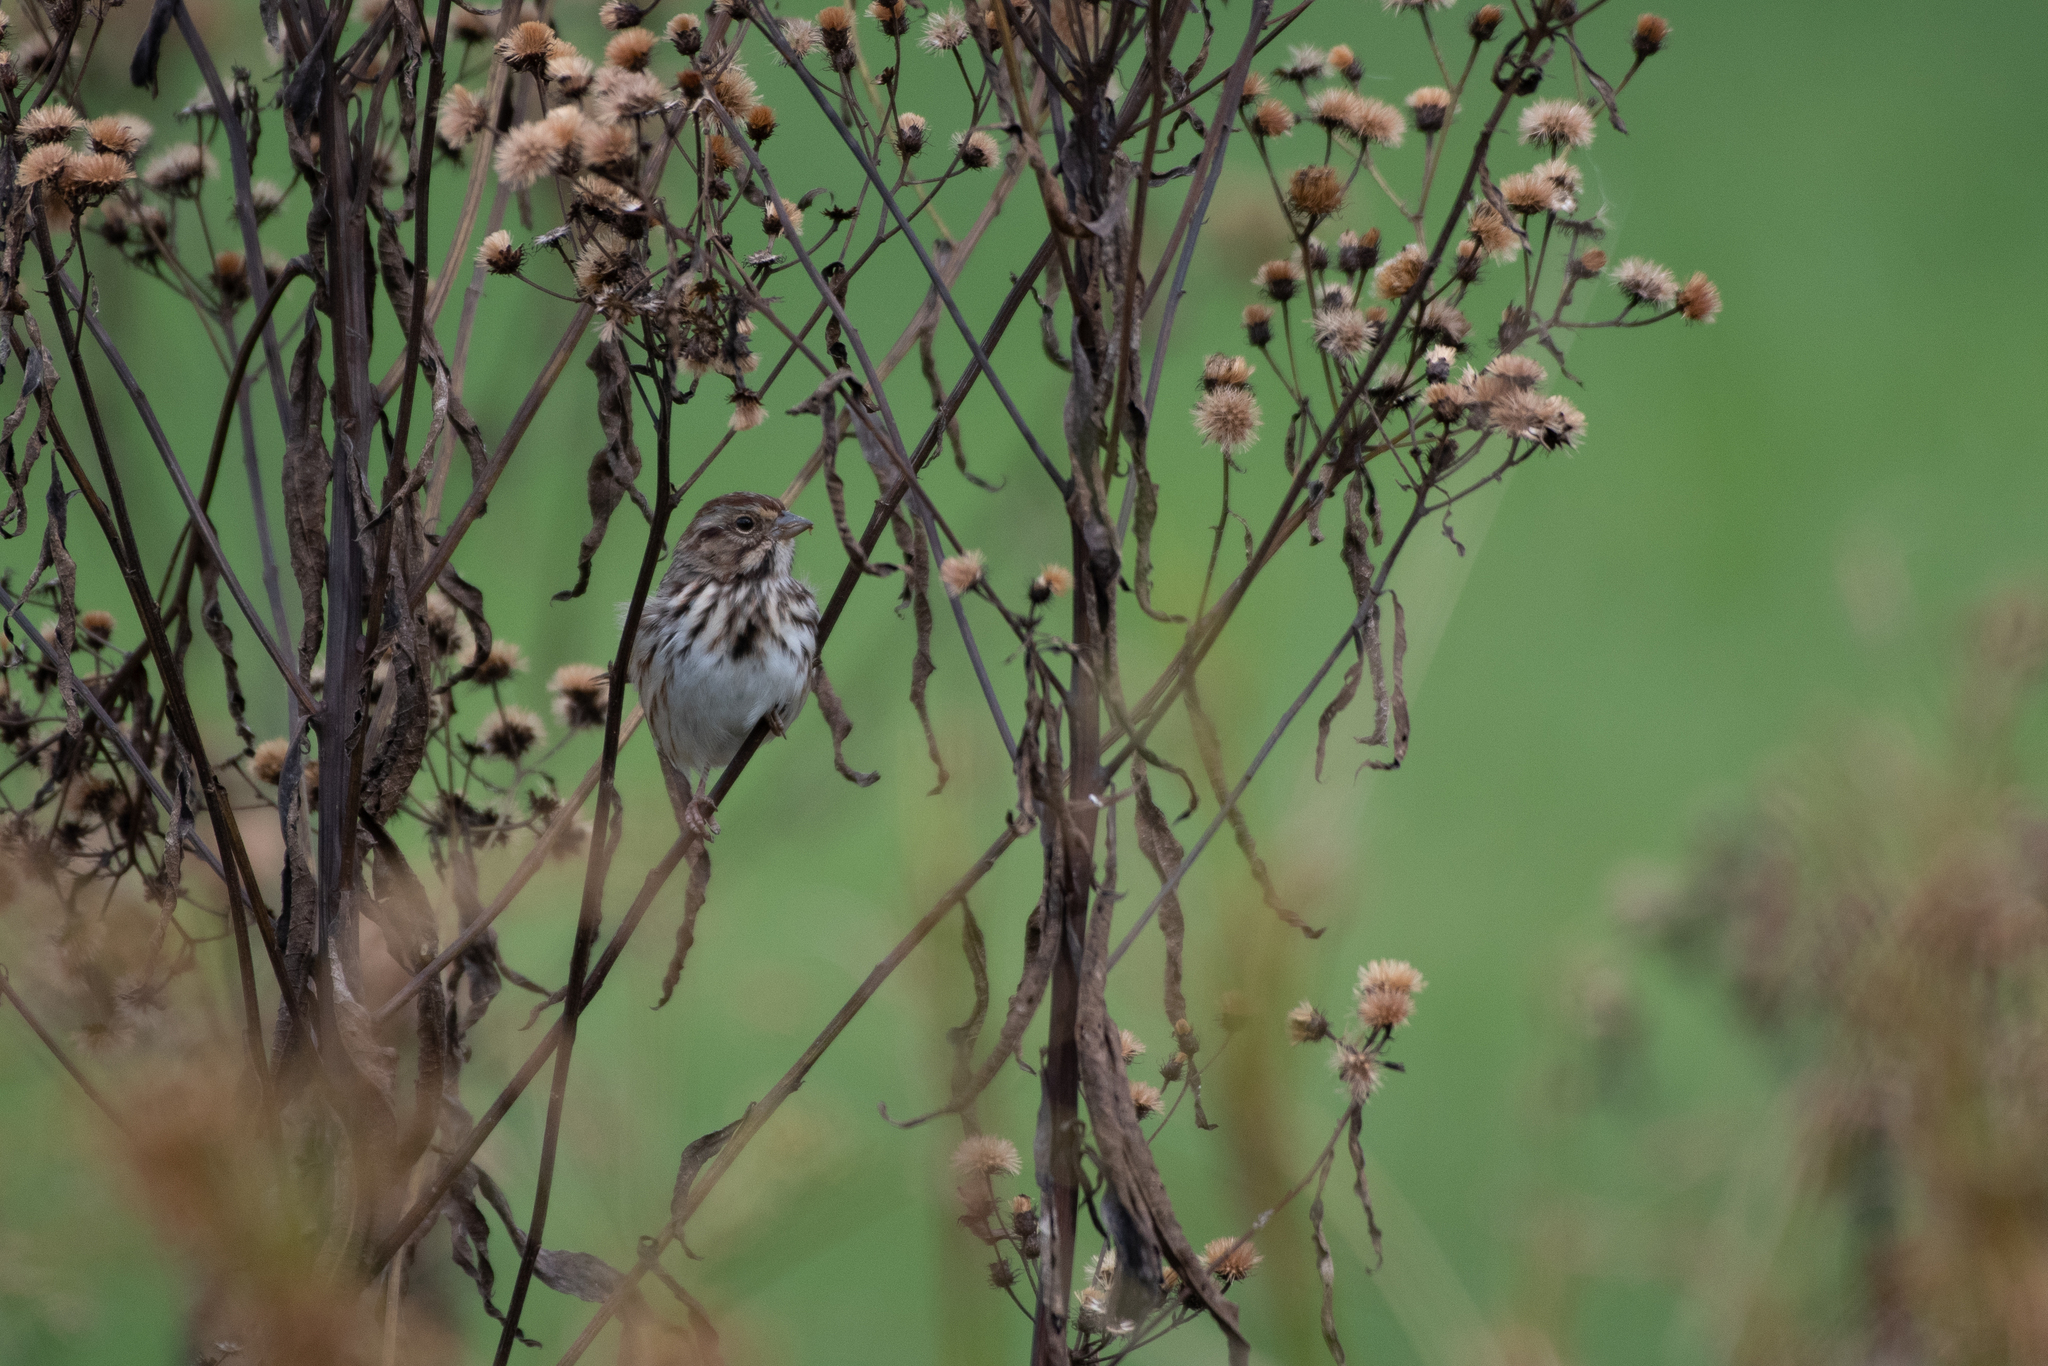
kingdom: Animalia
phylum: Chordata
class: Aves
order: Passeriformes
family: Passerellidae
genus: Melospiza
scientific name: Melospiza melodia
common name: Song sparrow
